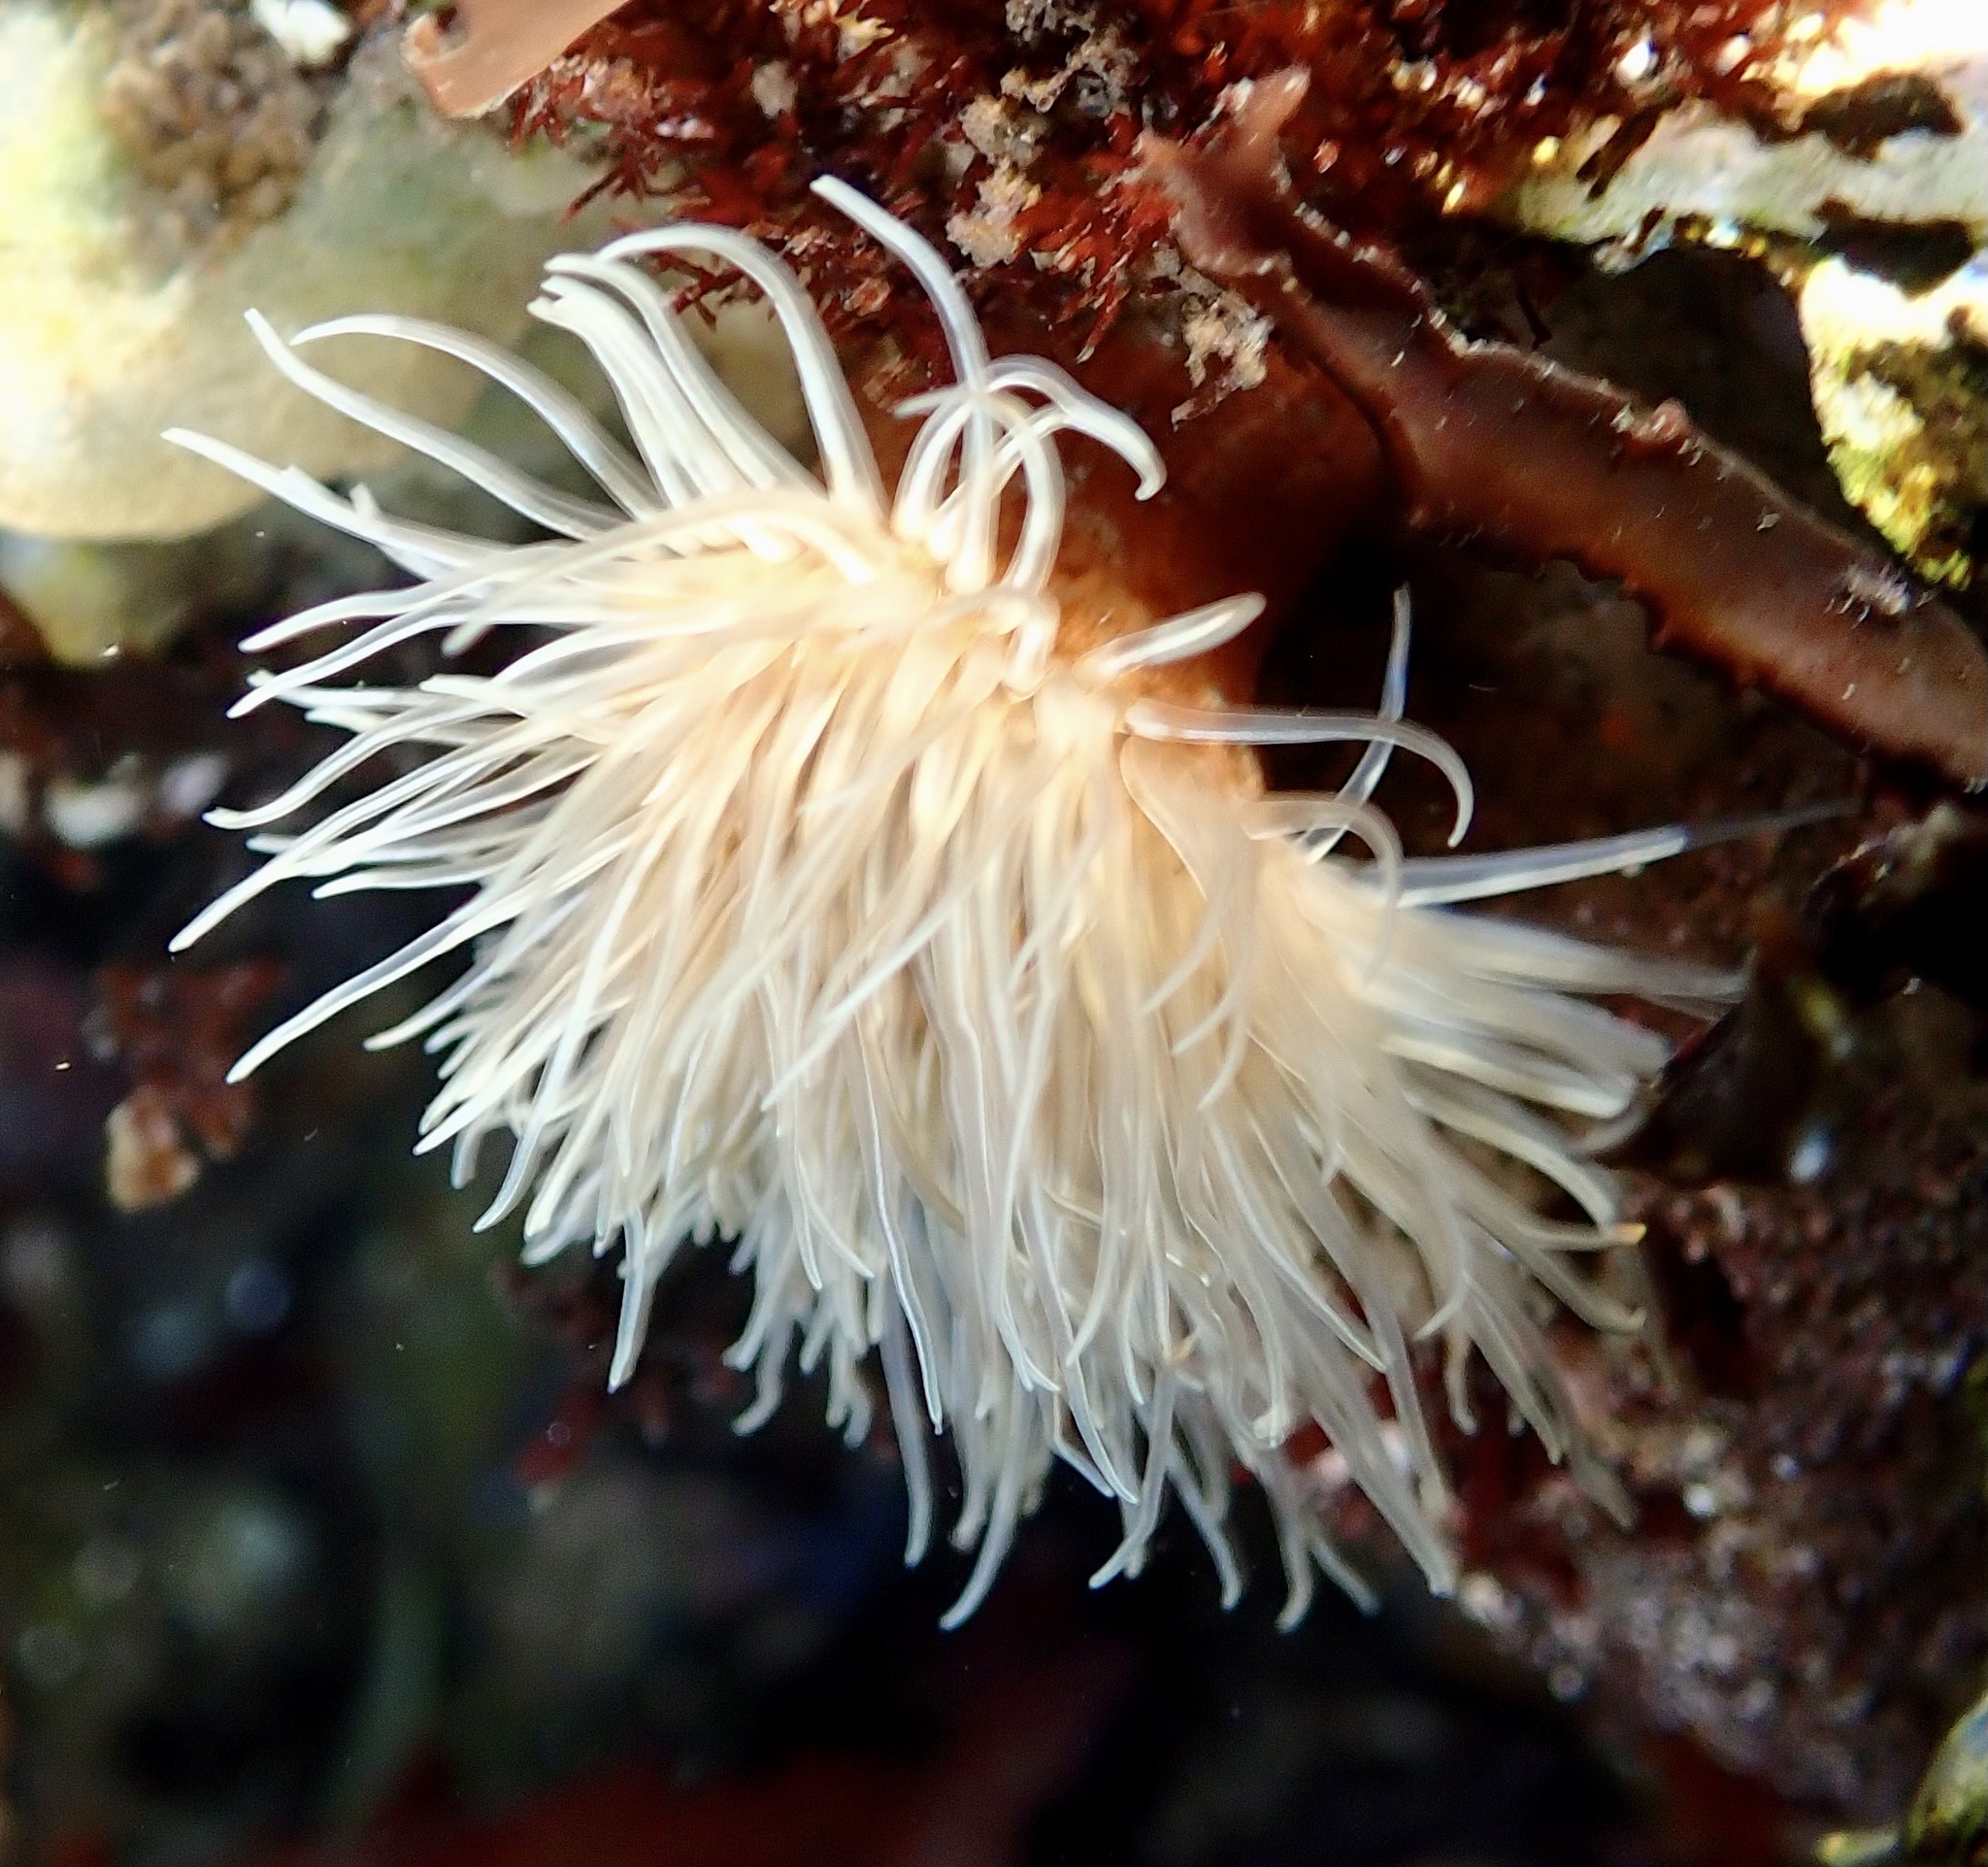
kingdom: Animalia
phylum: Cnidaria
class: Anthozoa
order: Actiniaria
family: Sagartiidae
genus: Sagartia
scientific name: Sagartia undata
